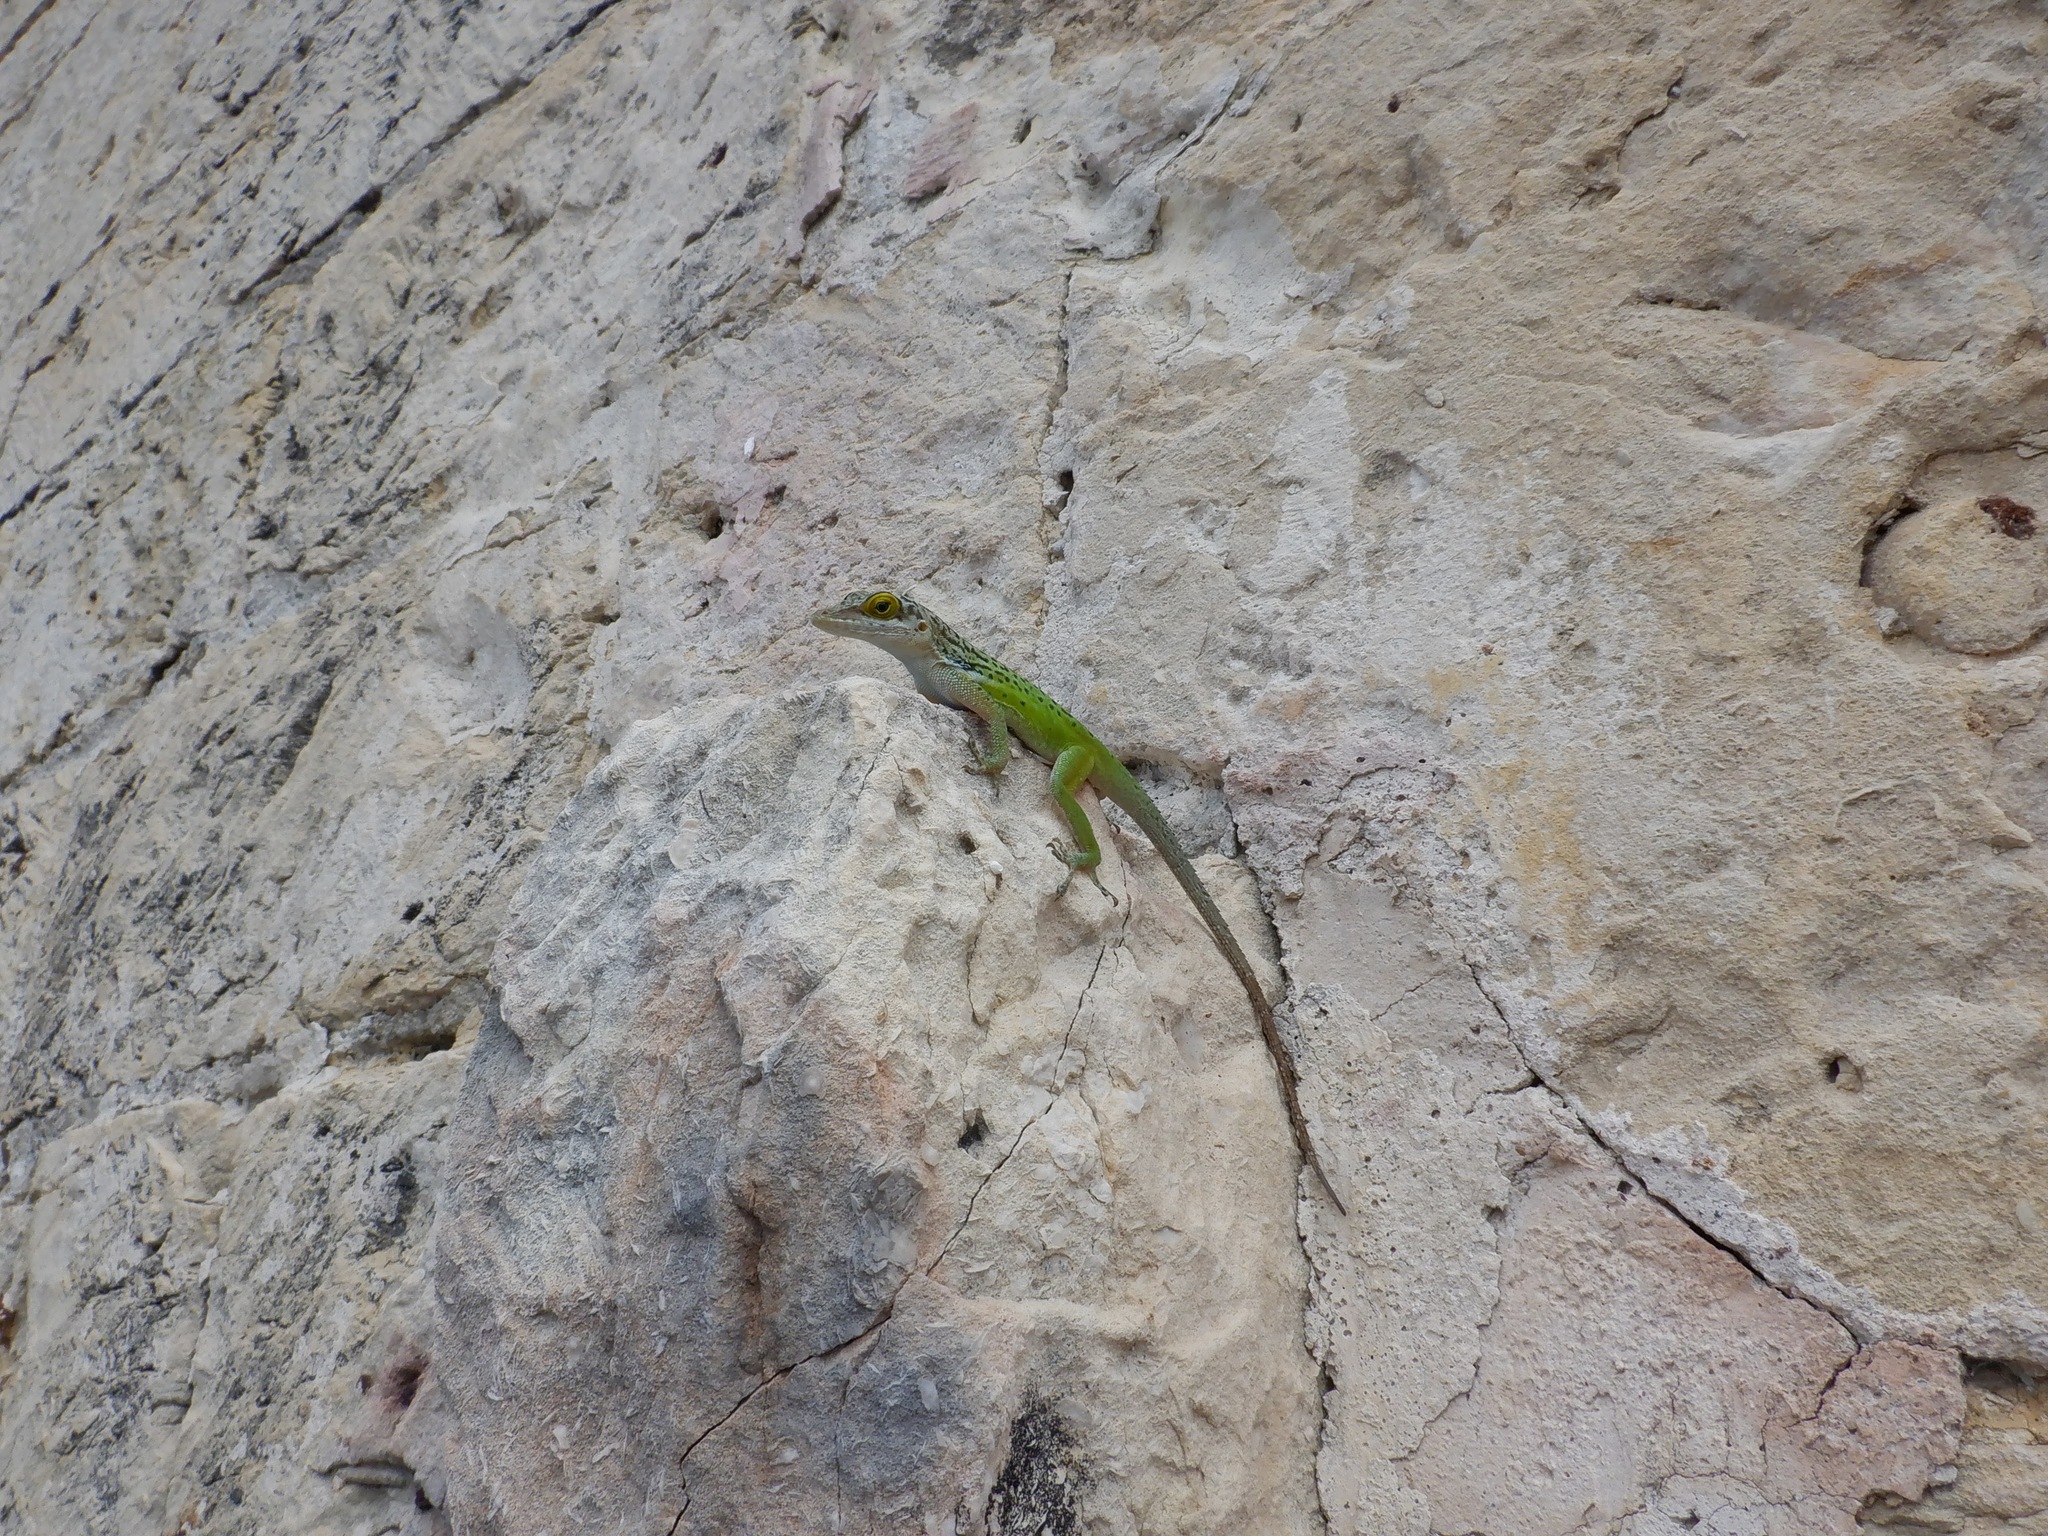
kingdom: Animalia
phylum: Chordata
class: Squamata
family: Dactyloidae
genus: Anolis
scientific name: Anolis leachii
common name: Barbuda bank tree anole
